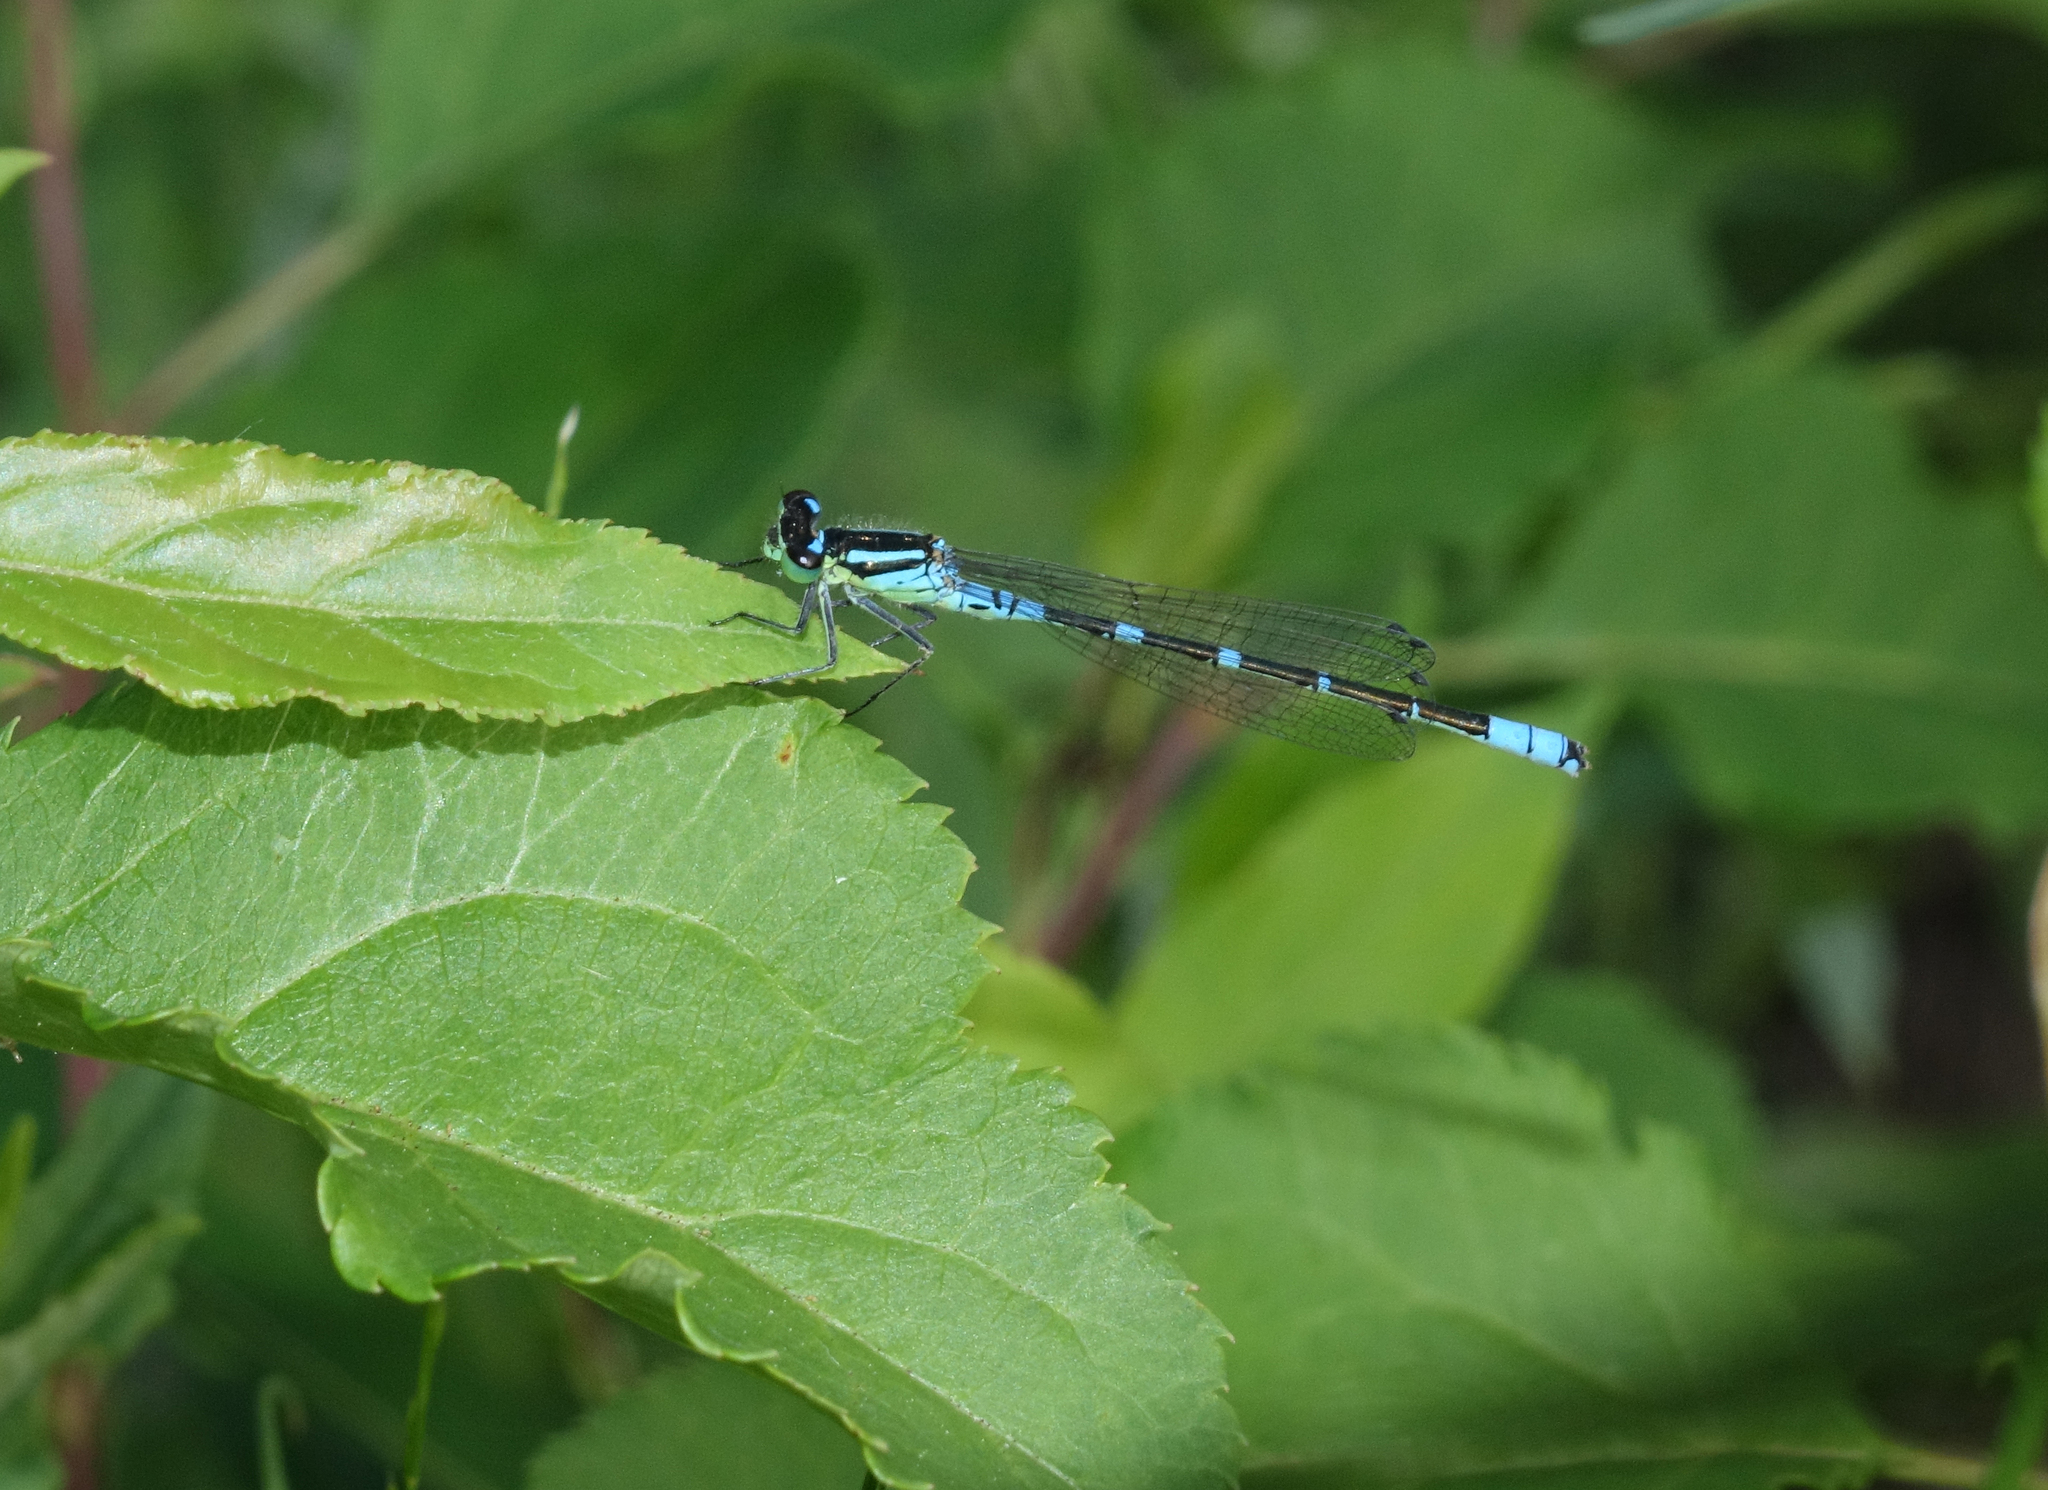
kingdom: Animalia
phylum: Arthropoda
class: Insecta
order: Odonata
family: Coenagrionidae
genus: Coenagrion
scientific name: Coenagrion lunulatum
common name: Irish damselfly
